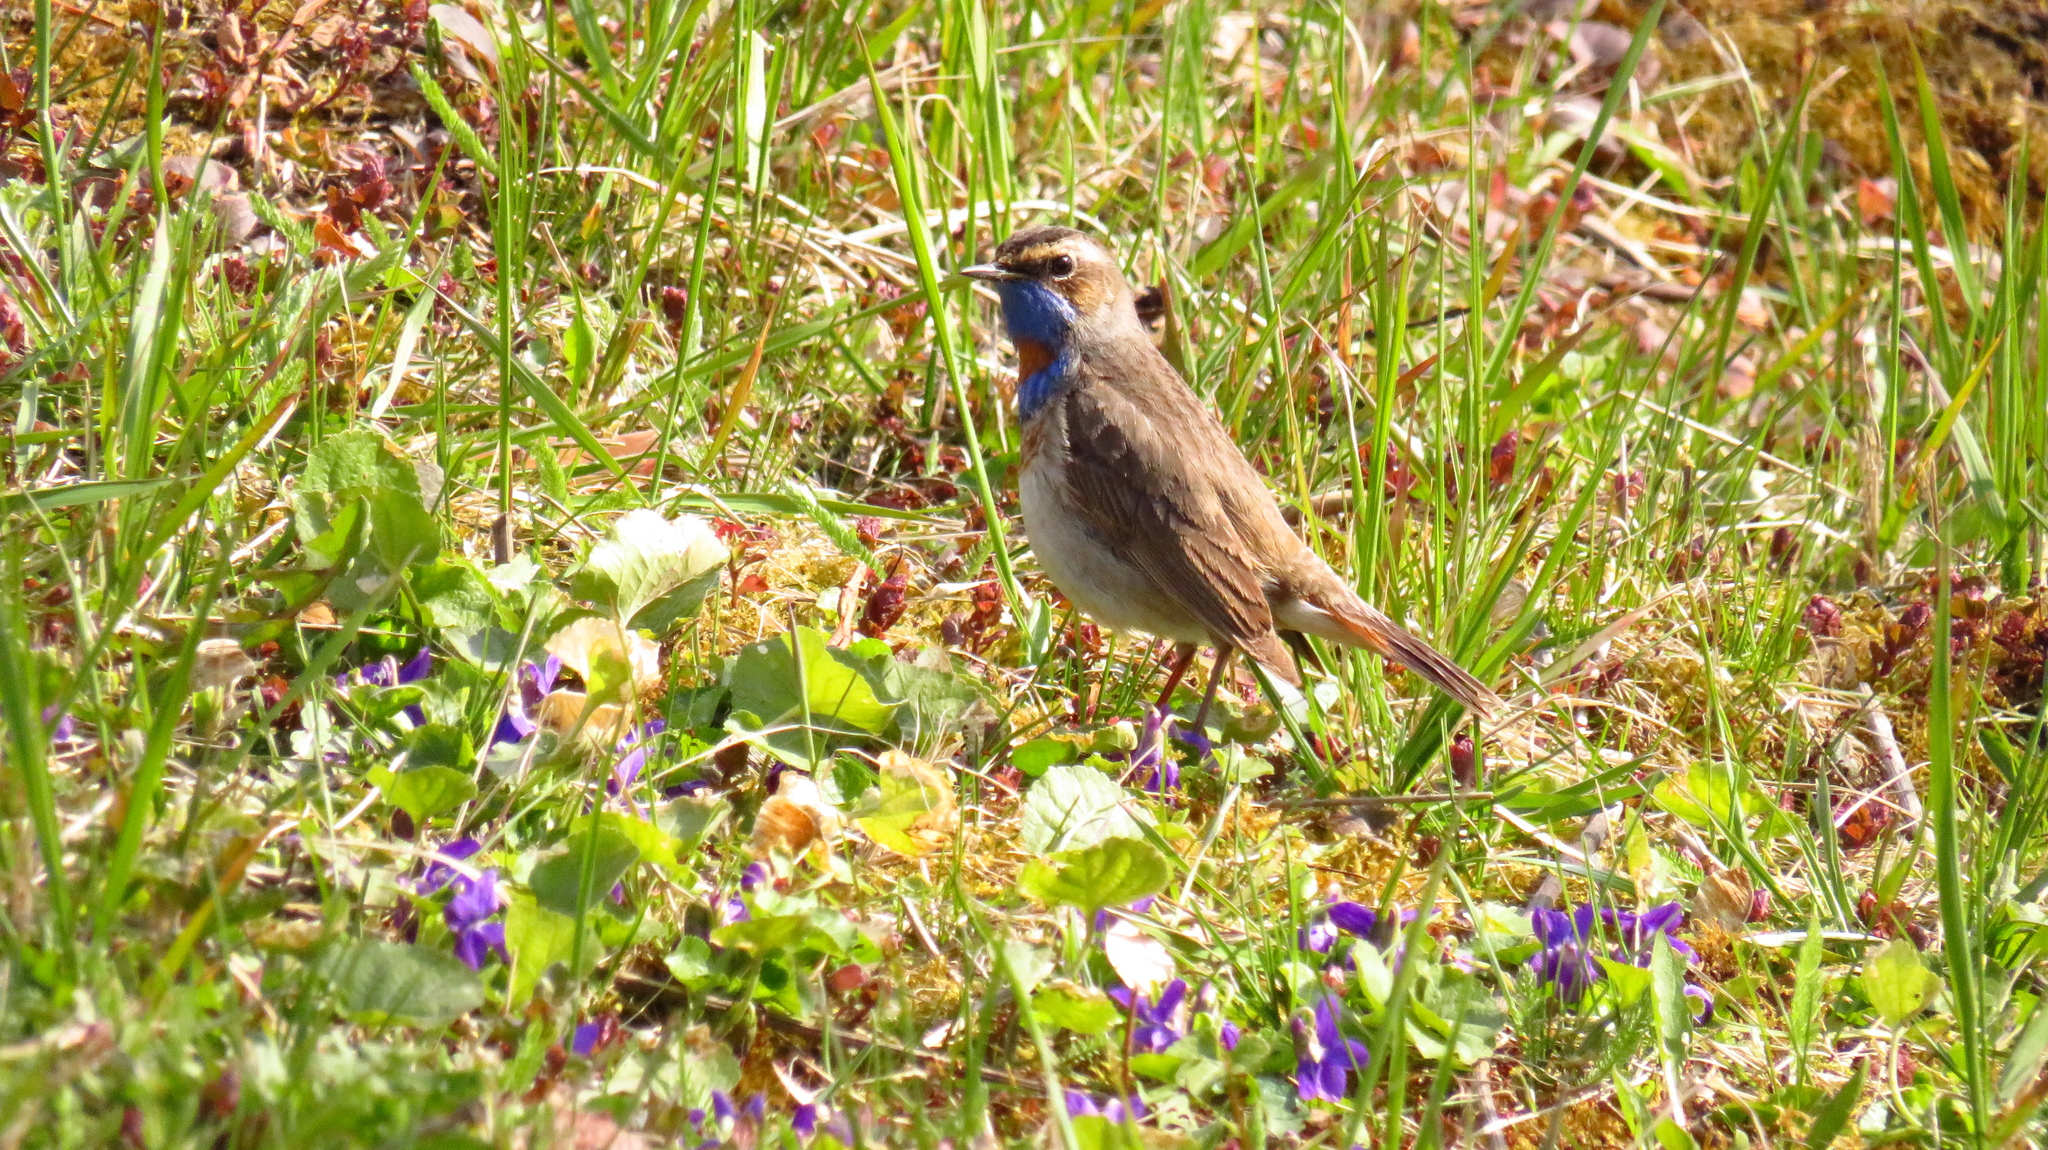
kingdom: Animalia
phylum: Chordata
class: Aves
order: Passeriformes
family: Muscicapidae
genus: Luscinia
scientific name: Luscinia svecica
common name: Bluethroat
